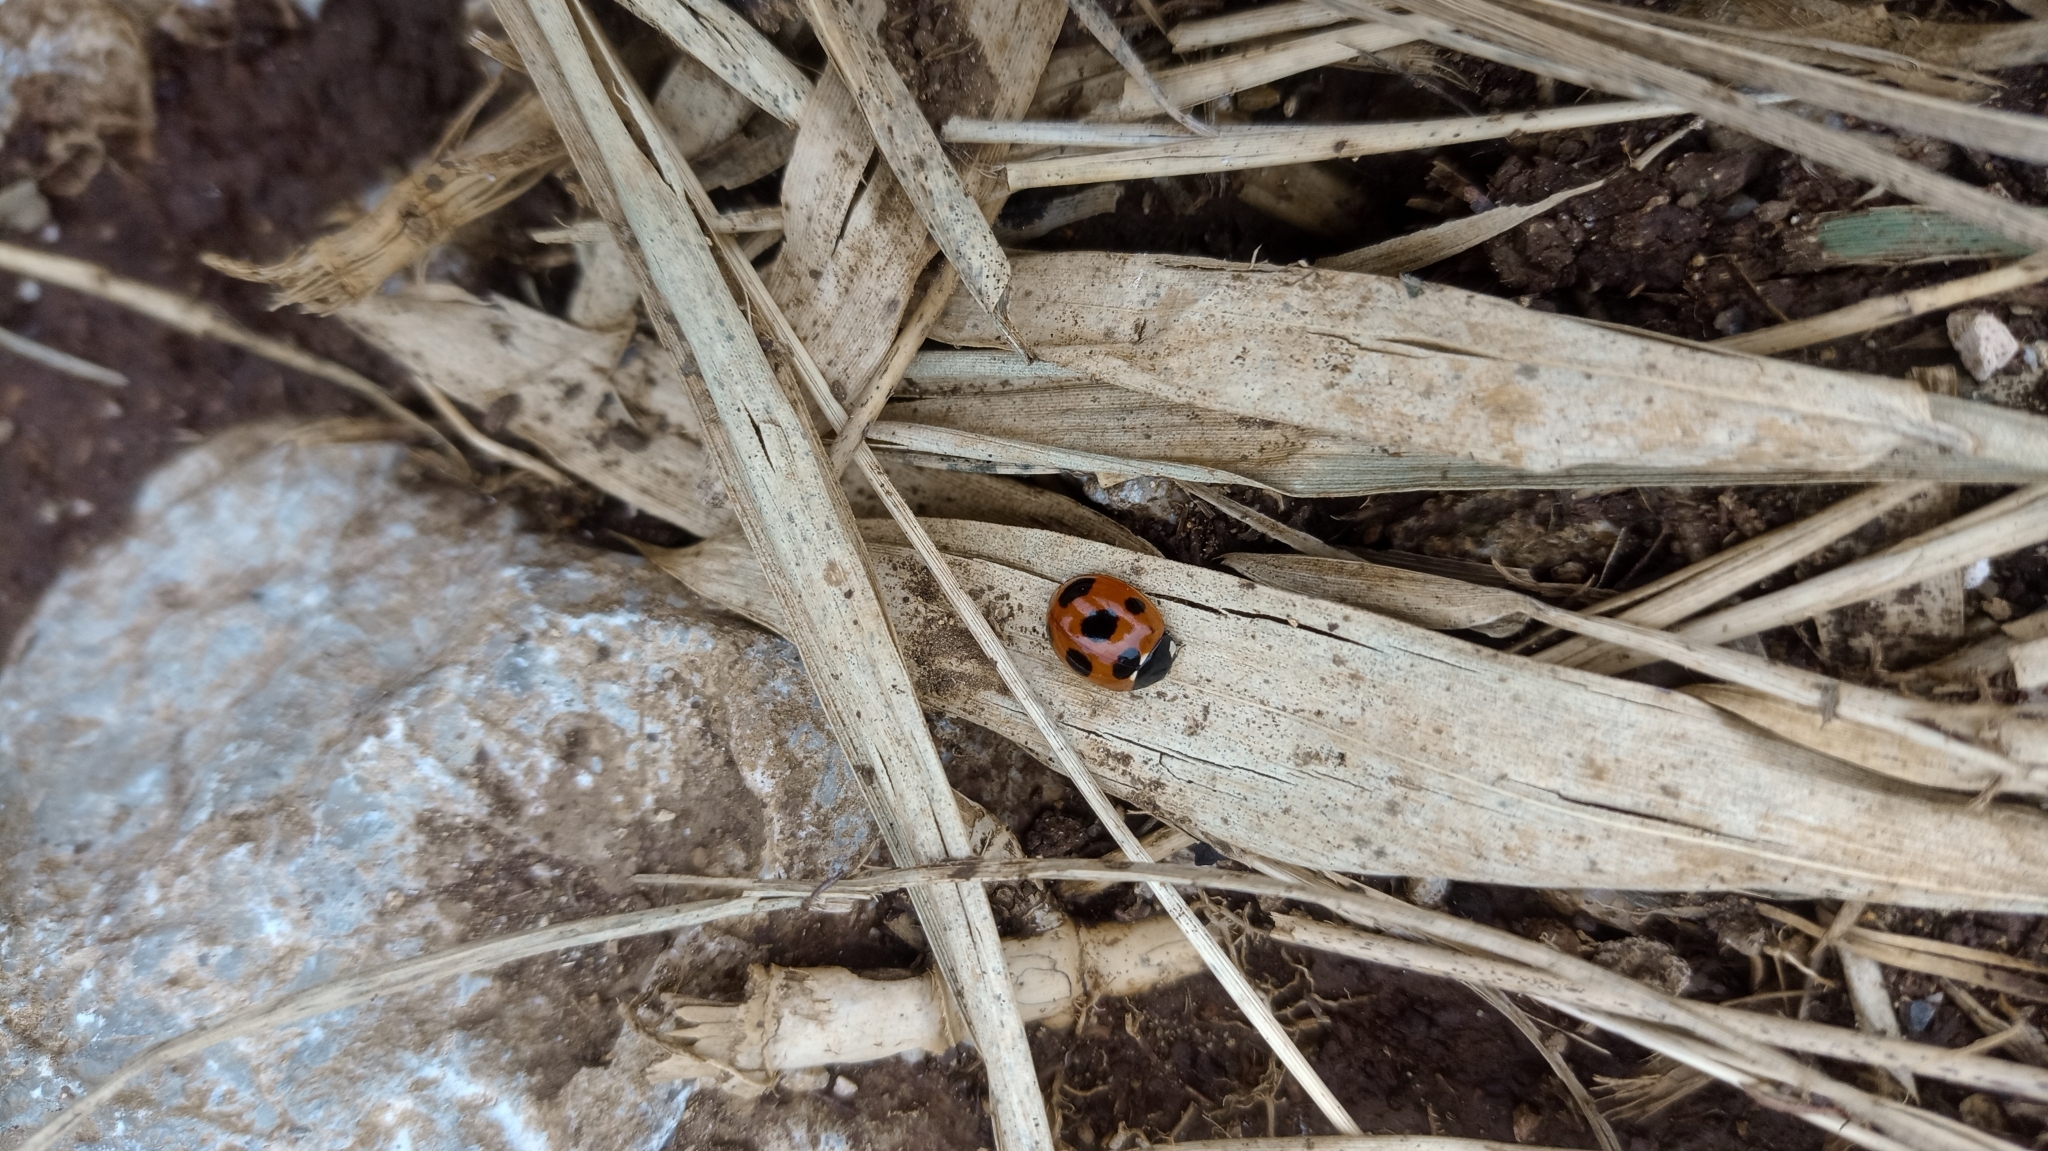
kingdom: Animalia
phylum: Arthropoda
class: Insecta
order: Coleoptera
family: Coccinellidae
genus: Coccinella
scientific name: Coccinella septempunctata
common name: Sevenspotted lady beetle
